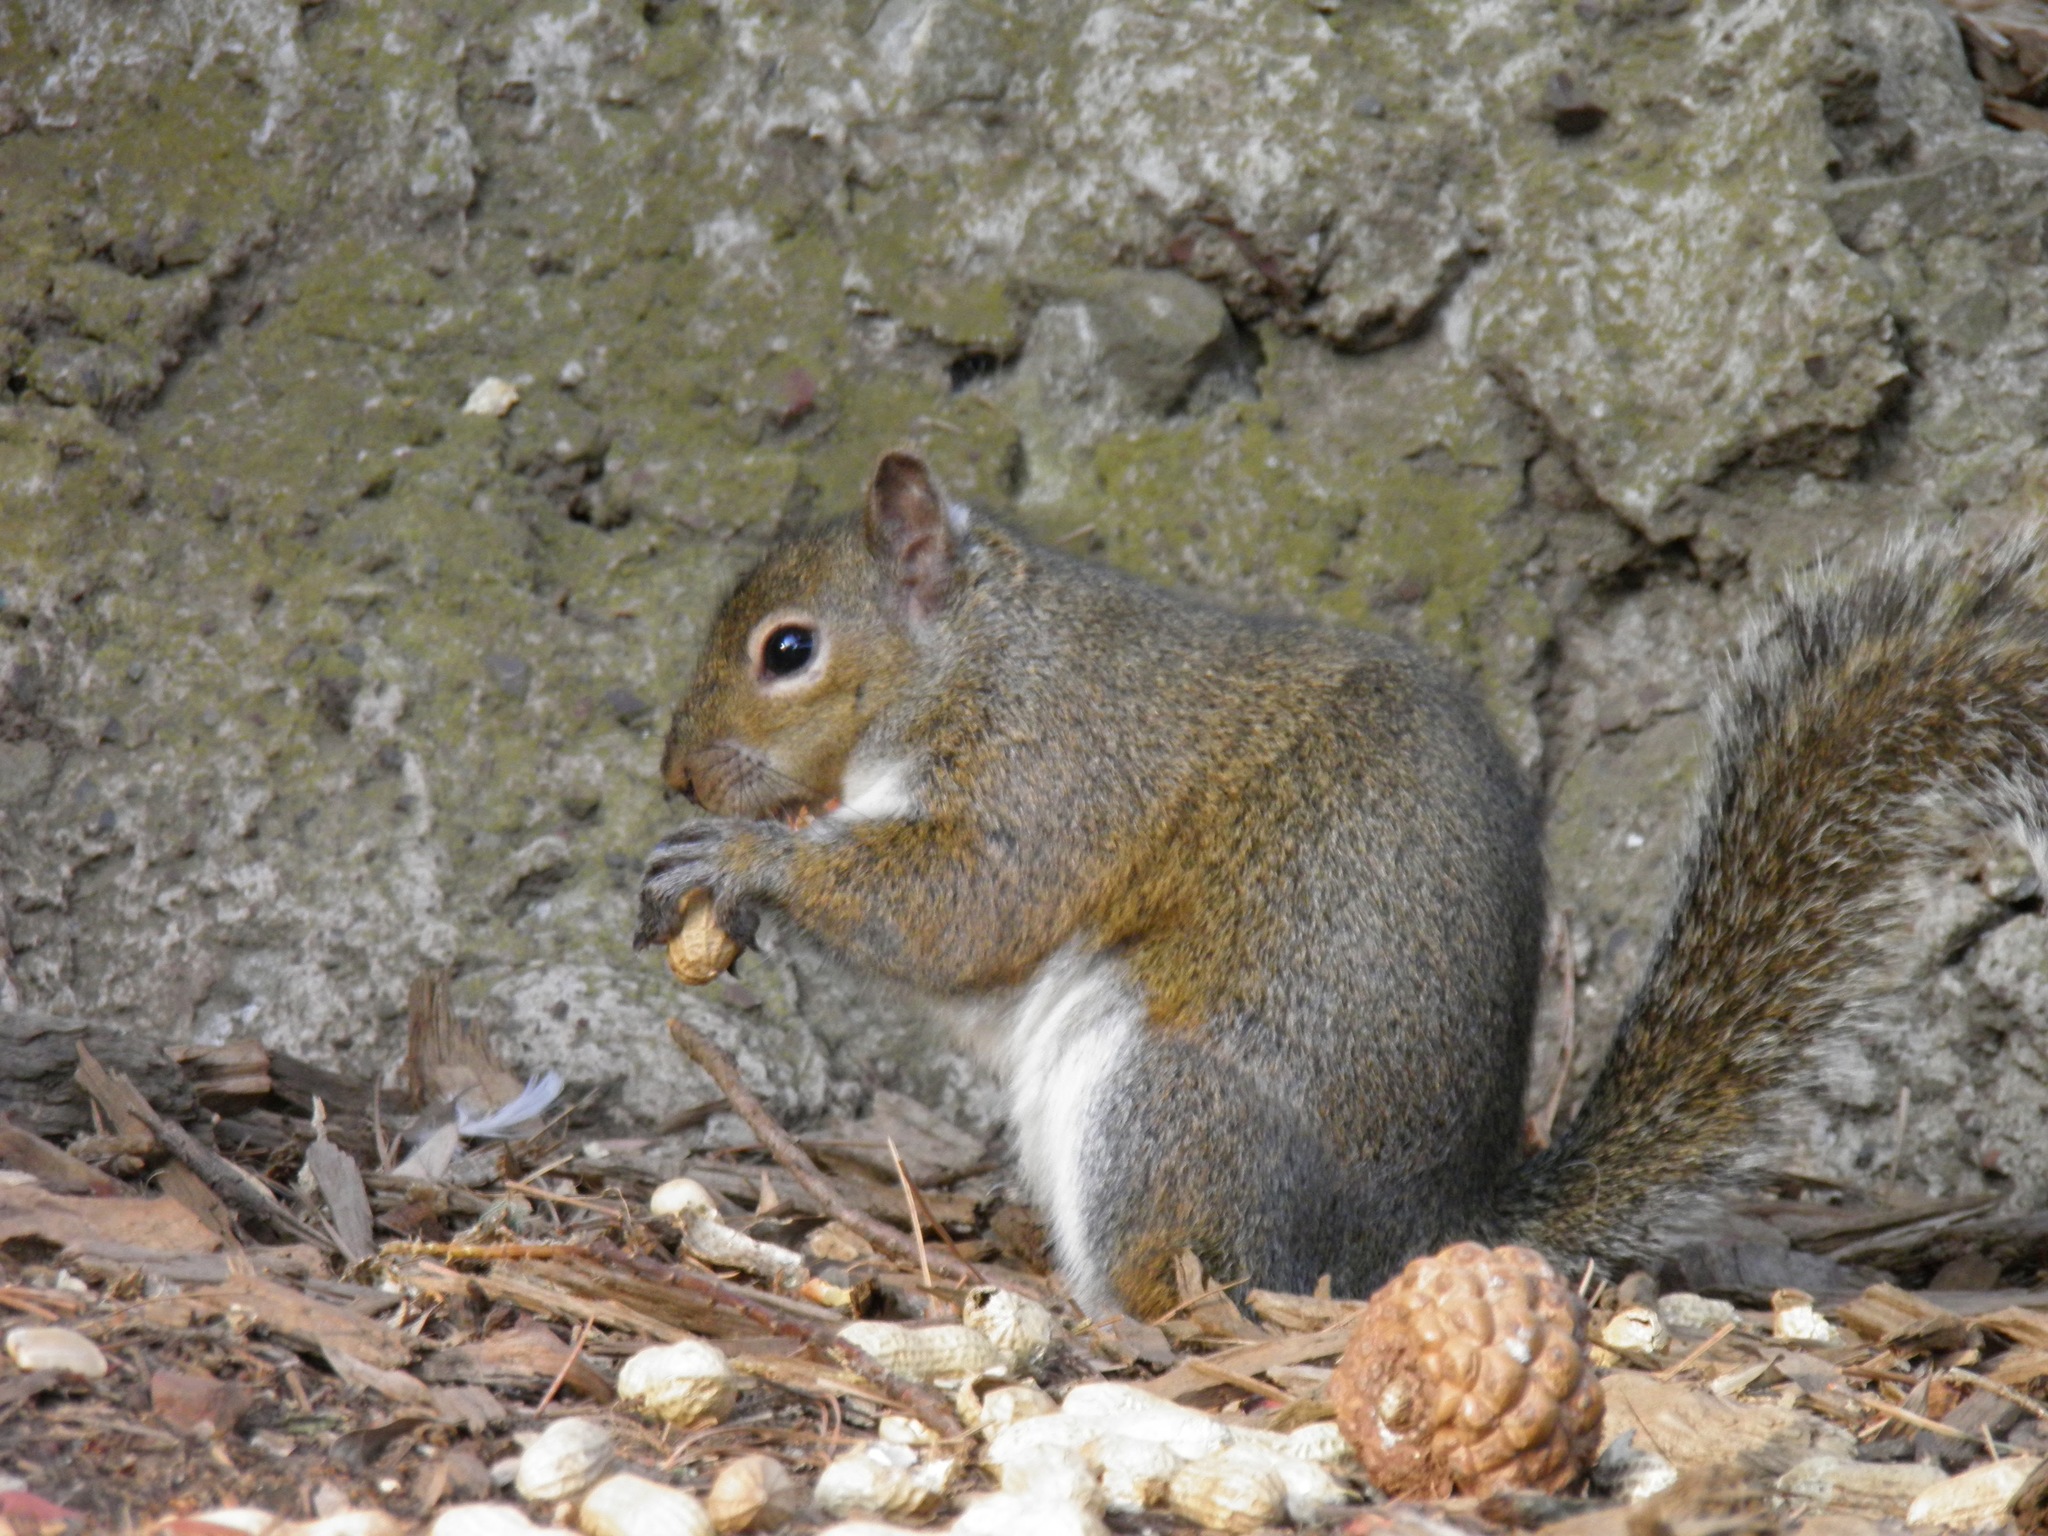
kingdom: Animalia
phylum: Chordata
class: Mammalia
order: Rodentia
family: Sciuridae
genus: Sciurus
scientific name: Sciurus carolinensis
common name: Eastern gray squirrel
